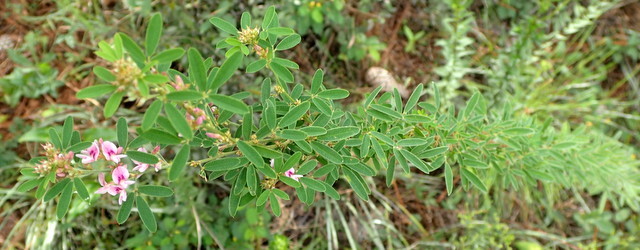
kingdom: Plantae
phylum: Tracheophyta
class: Magnoliopsida
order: Fabales
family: Fabaceae
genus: Lespedeza
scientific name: Lespedeza virginica
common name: Slender bush-clover
